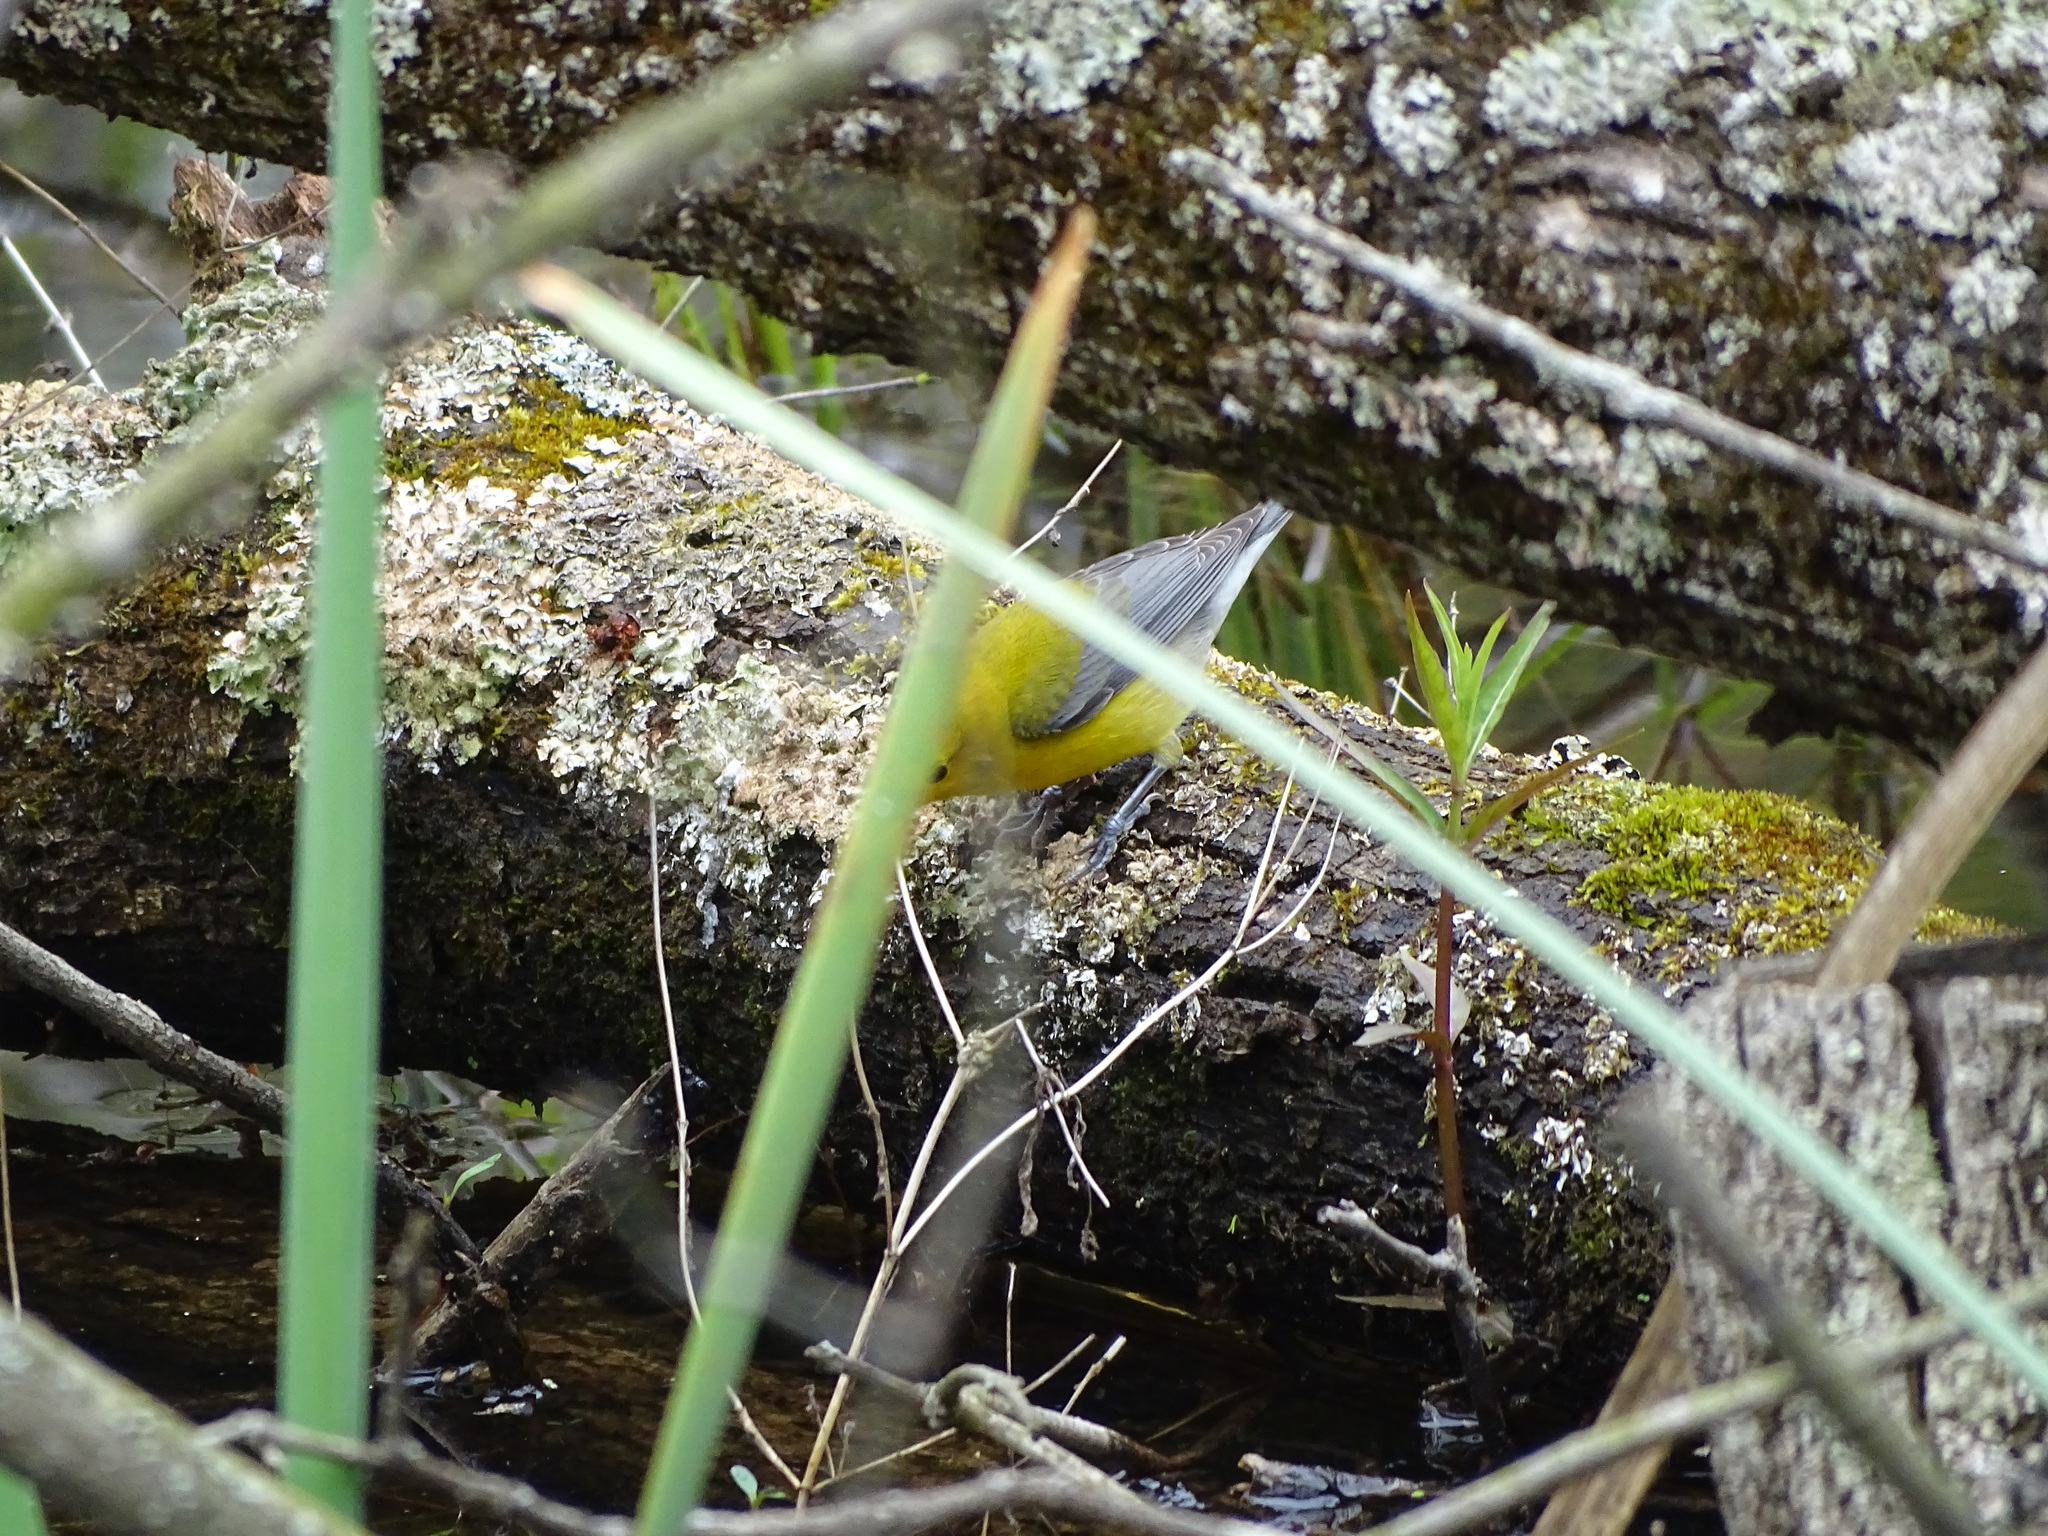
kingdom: Animalia
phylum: Chordata
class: Aves
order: Passeriformes
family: Parulidae
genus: Protonotaria
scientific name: Protonotaria citrea
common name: Prothonotary warbler
